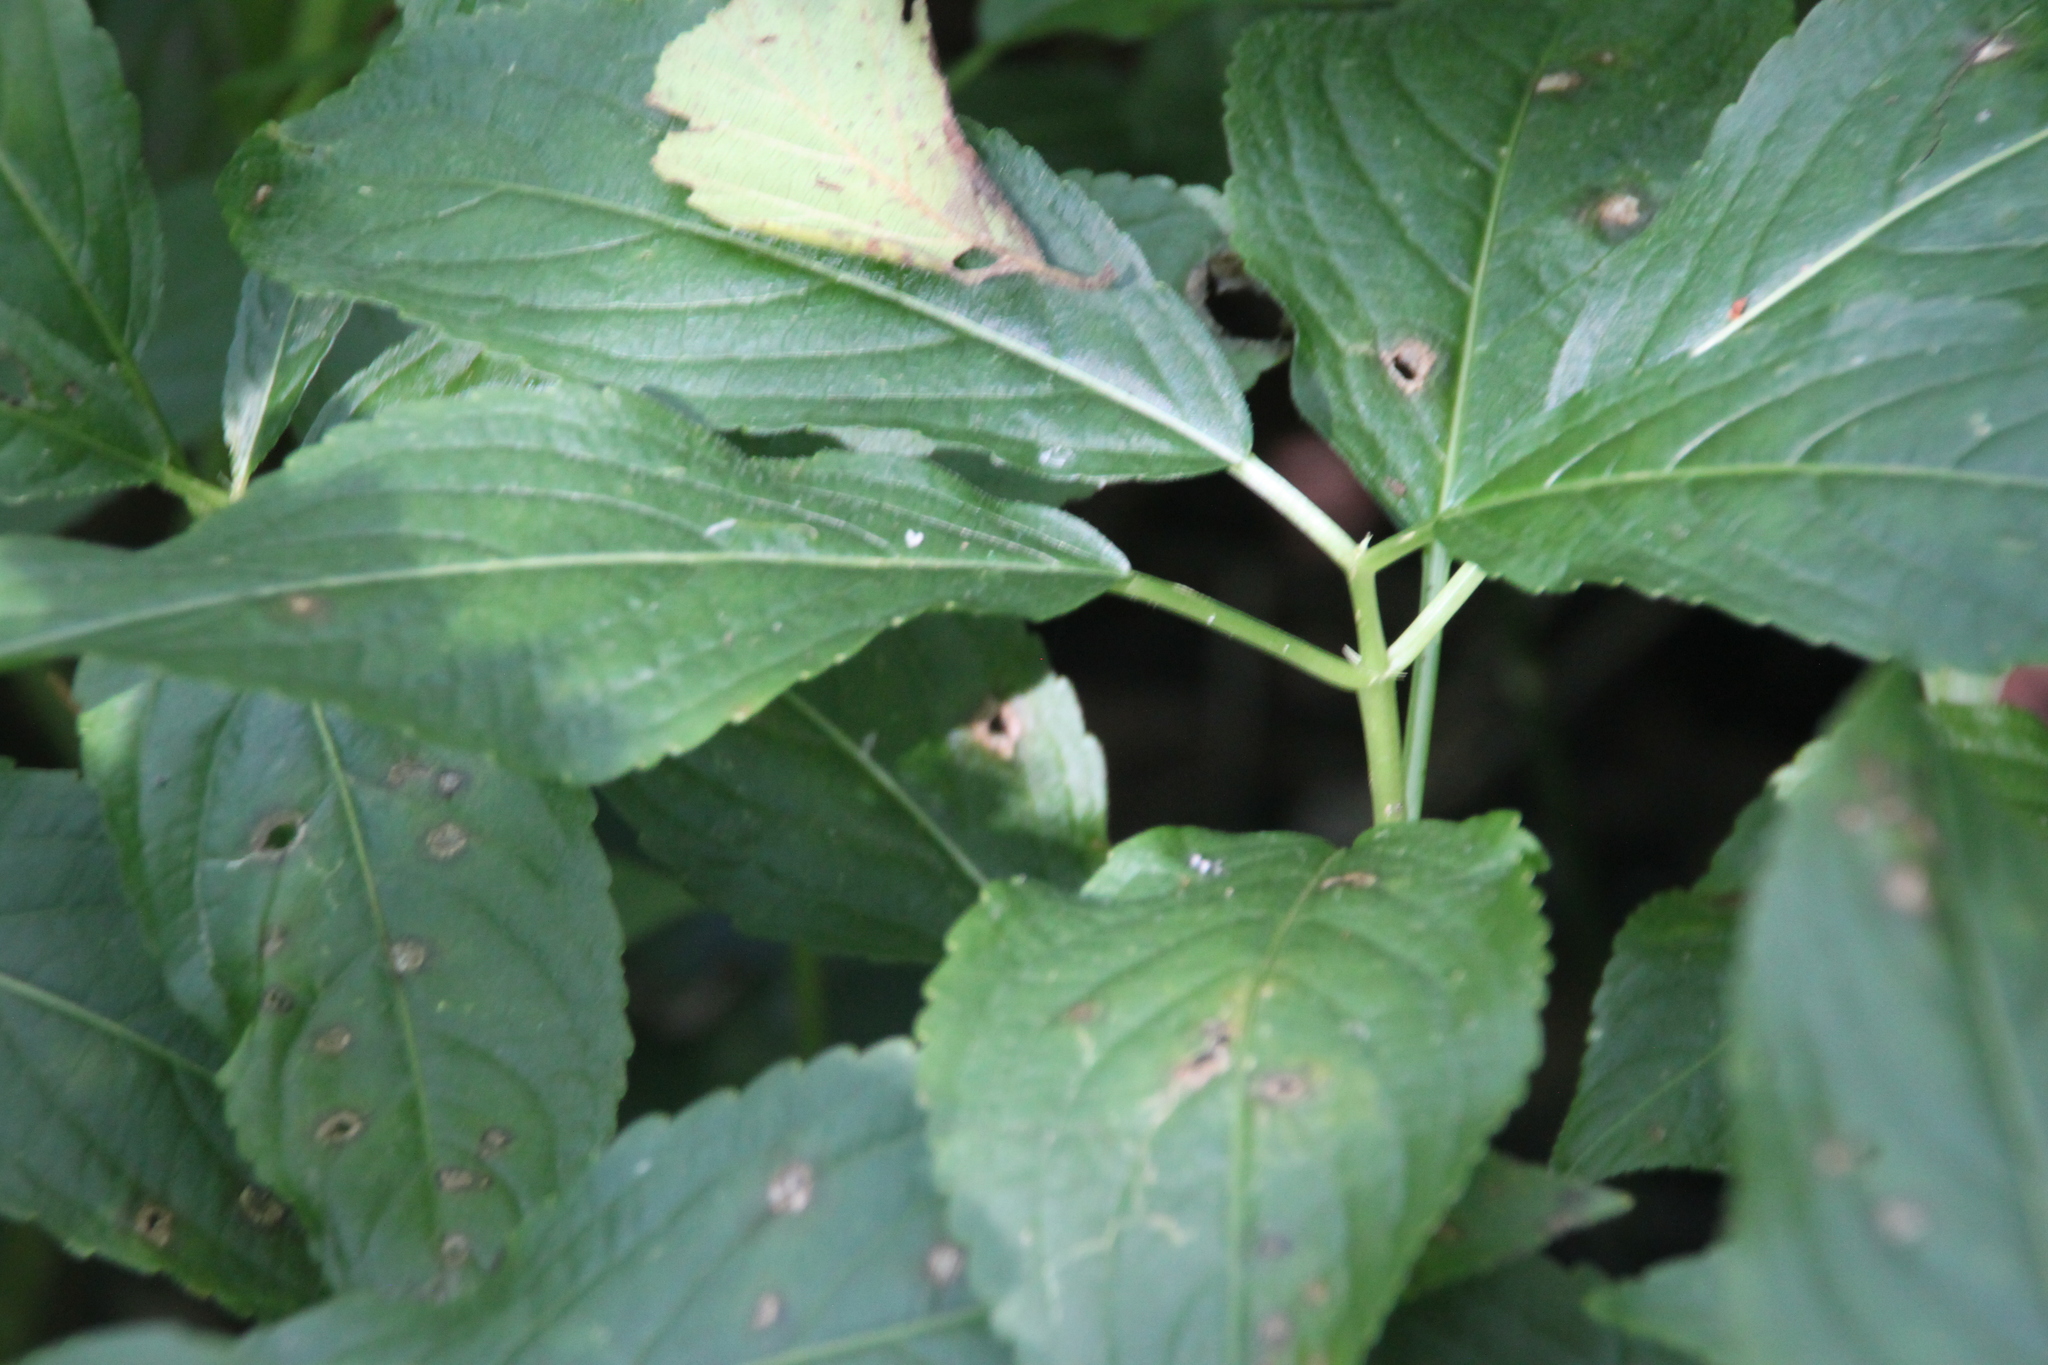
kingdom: Plantae
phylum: Tracheophyta
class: Magnoliopsida
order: Malpighiales
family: Euphorbiaceae
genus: Mercurialis
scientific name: Mercurialis perennis
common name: Dog mercury
